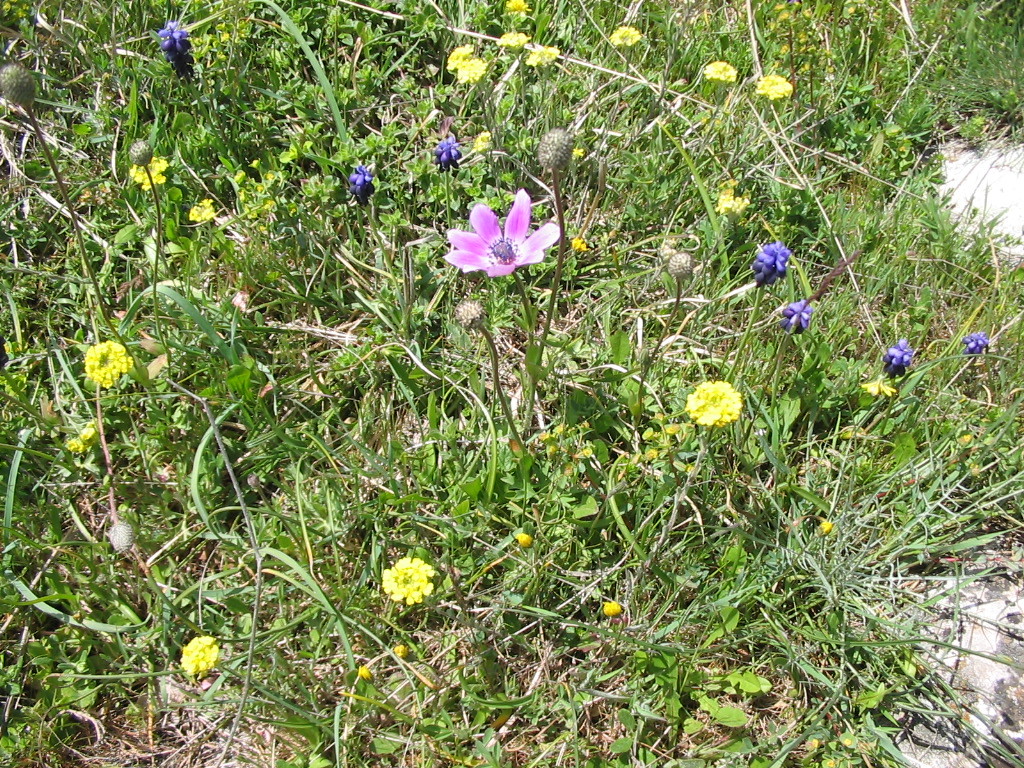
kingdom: Plantae
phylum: Tracheophyta
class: Magnoliopsida
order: Ranunculales
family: Ranunculaceae
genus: Anemone
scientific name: Anemone pavonina
